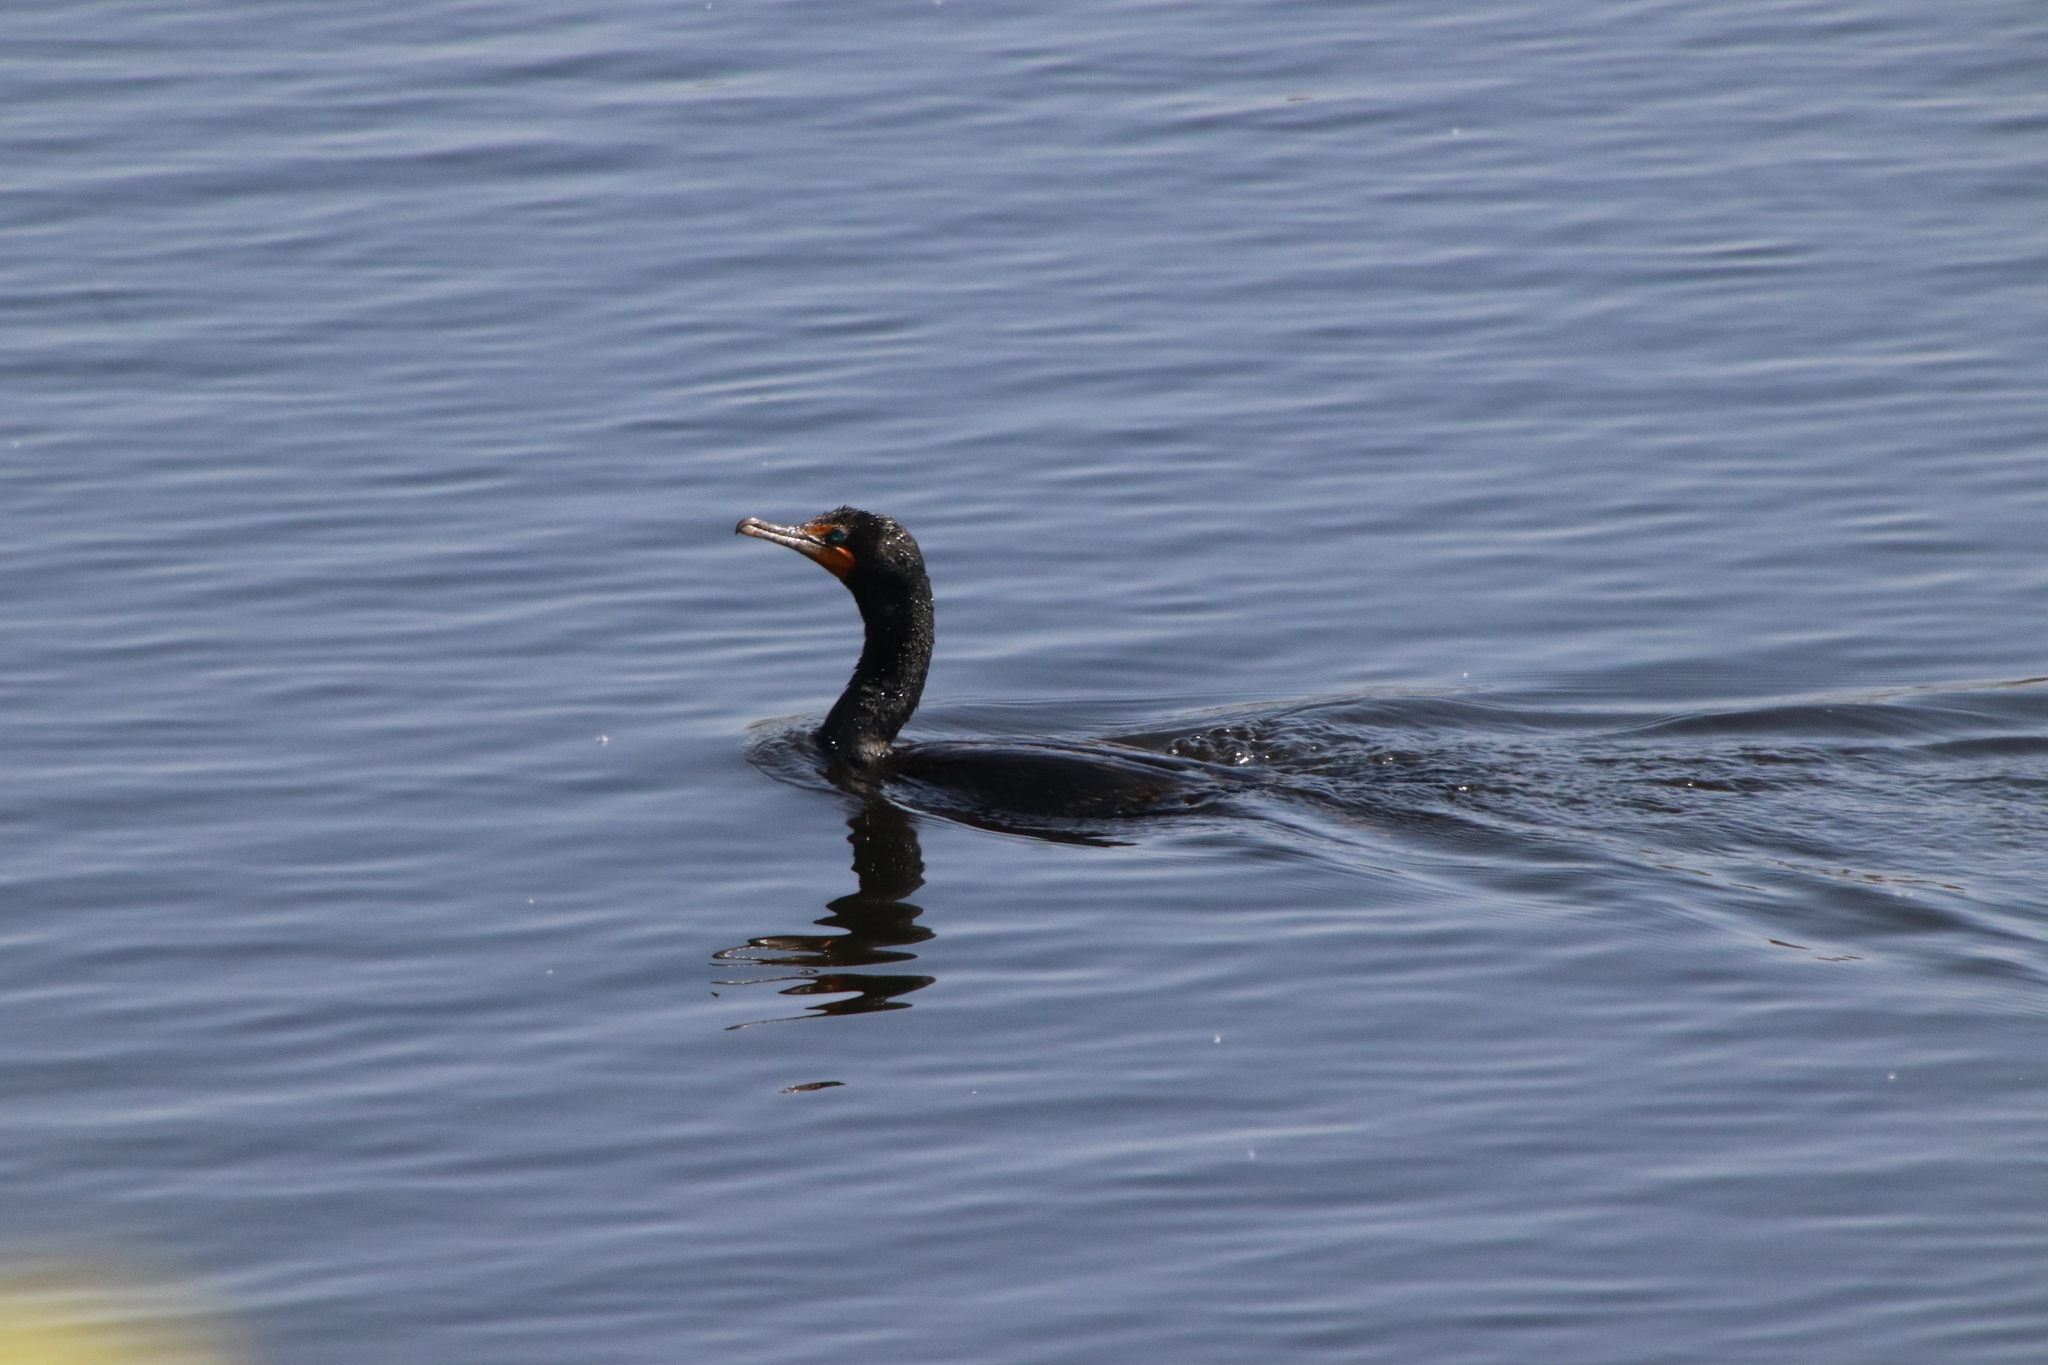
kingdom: Animalia
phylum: Chordata
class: Aves
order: Suliformes
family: Phalacrocoracidae
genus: Phalacrocorax
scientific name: Phalacrocorax auritus
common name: Double-crested cormorant
